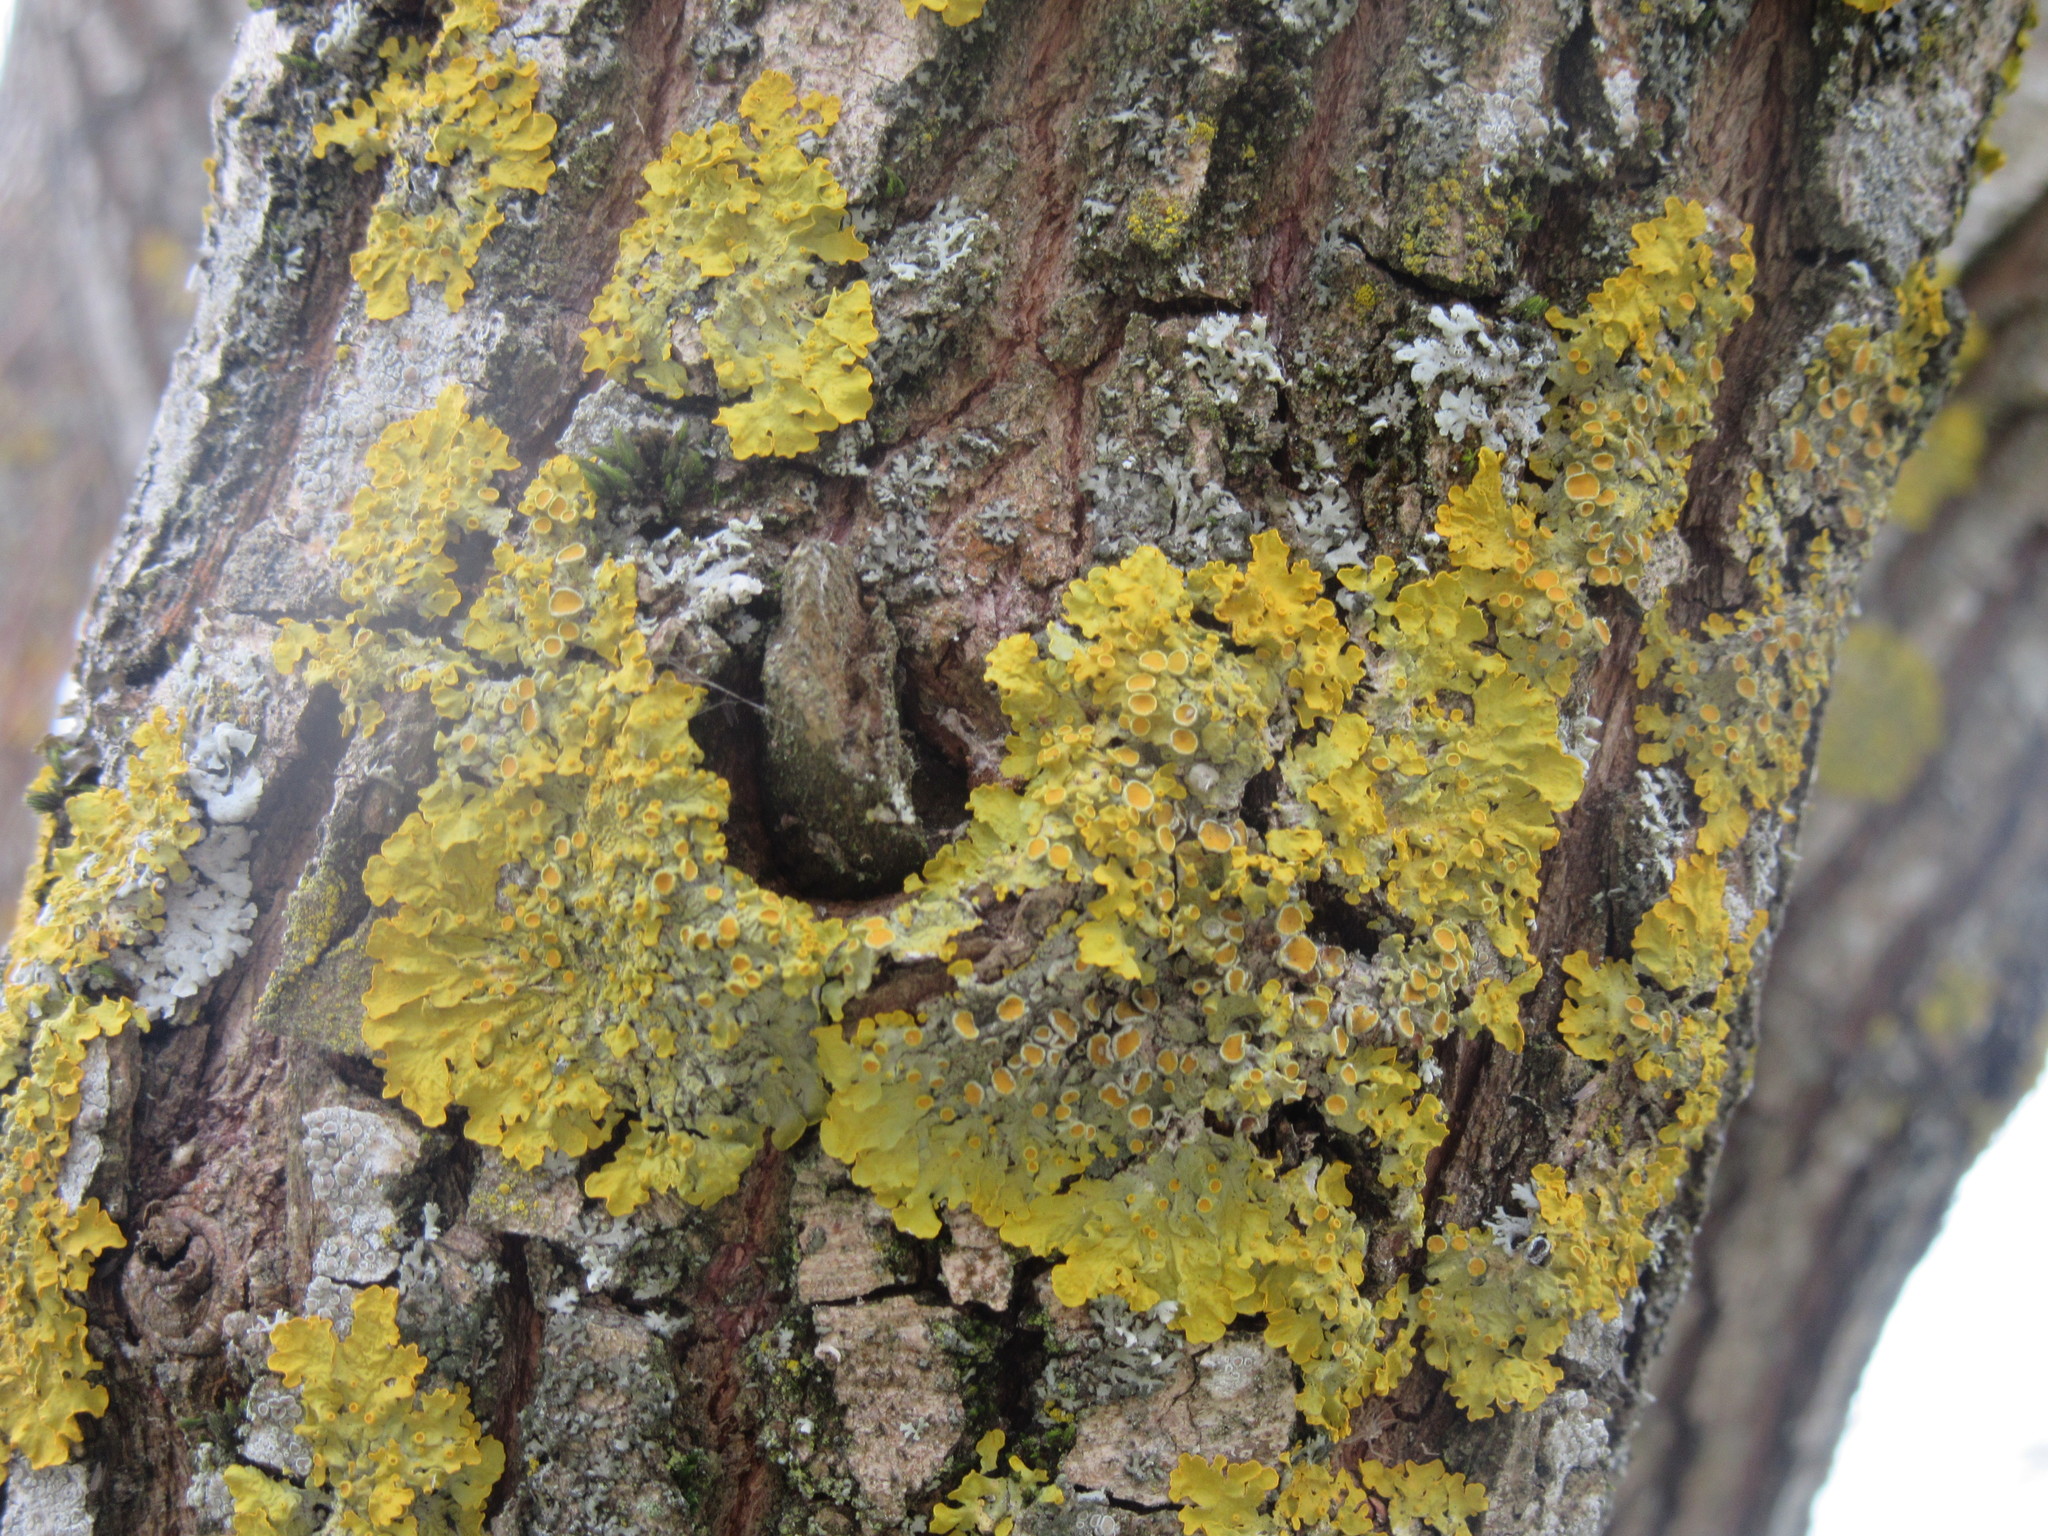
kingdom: Fungi
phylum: Ascomycota
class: Lecanoromycetes
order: Teloschistales
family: Teloschistaceae
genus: Xanthoria
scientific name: Xanthoria parietina
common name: Common orange lichen
